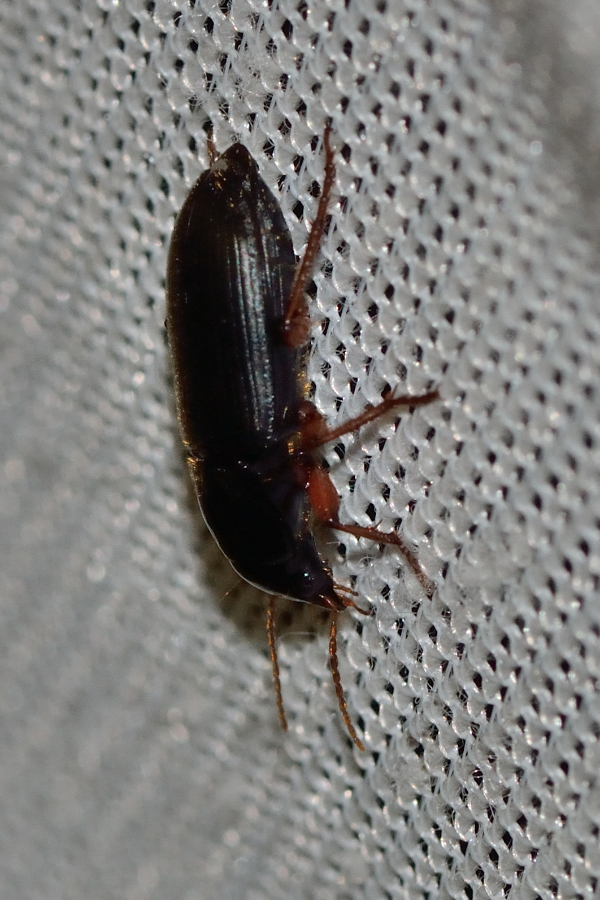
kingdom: Animalia
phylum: Arthropoda
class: Insecta
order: Coleoptera
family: Carabidae
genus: Harpalus
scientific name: Harpalus rufipes
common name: Strawberry harp ground beetle
